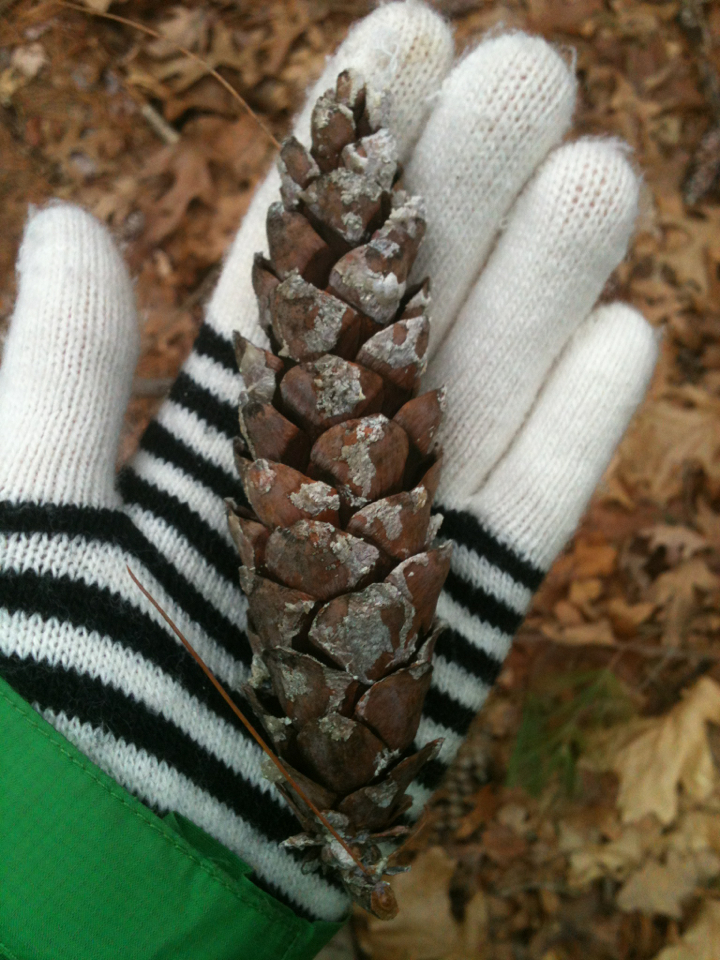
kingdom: Plantae
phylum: Tracheophyta
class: Pinopsida
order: Pinales
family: Pinaceae
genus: Pinus
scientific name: Pinus strobus
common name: Weymouth pine
